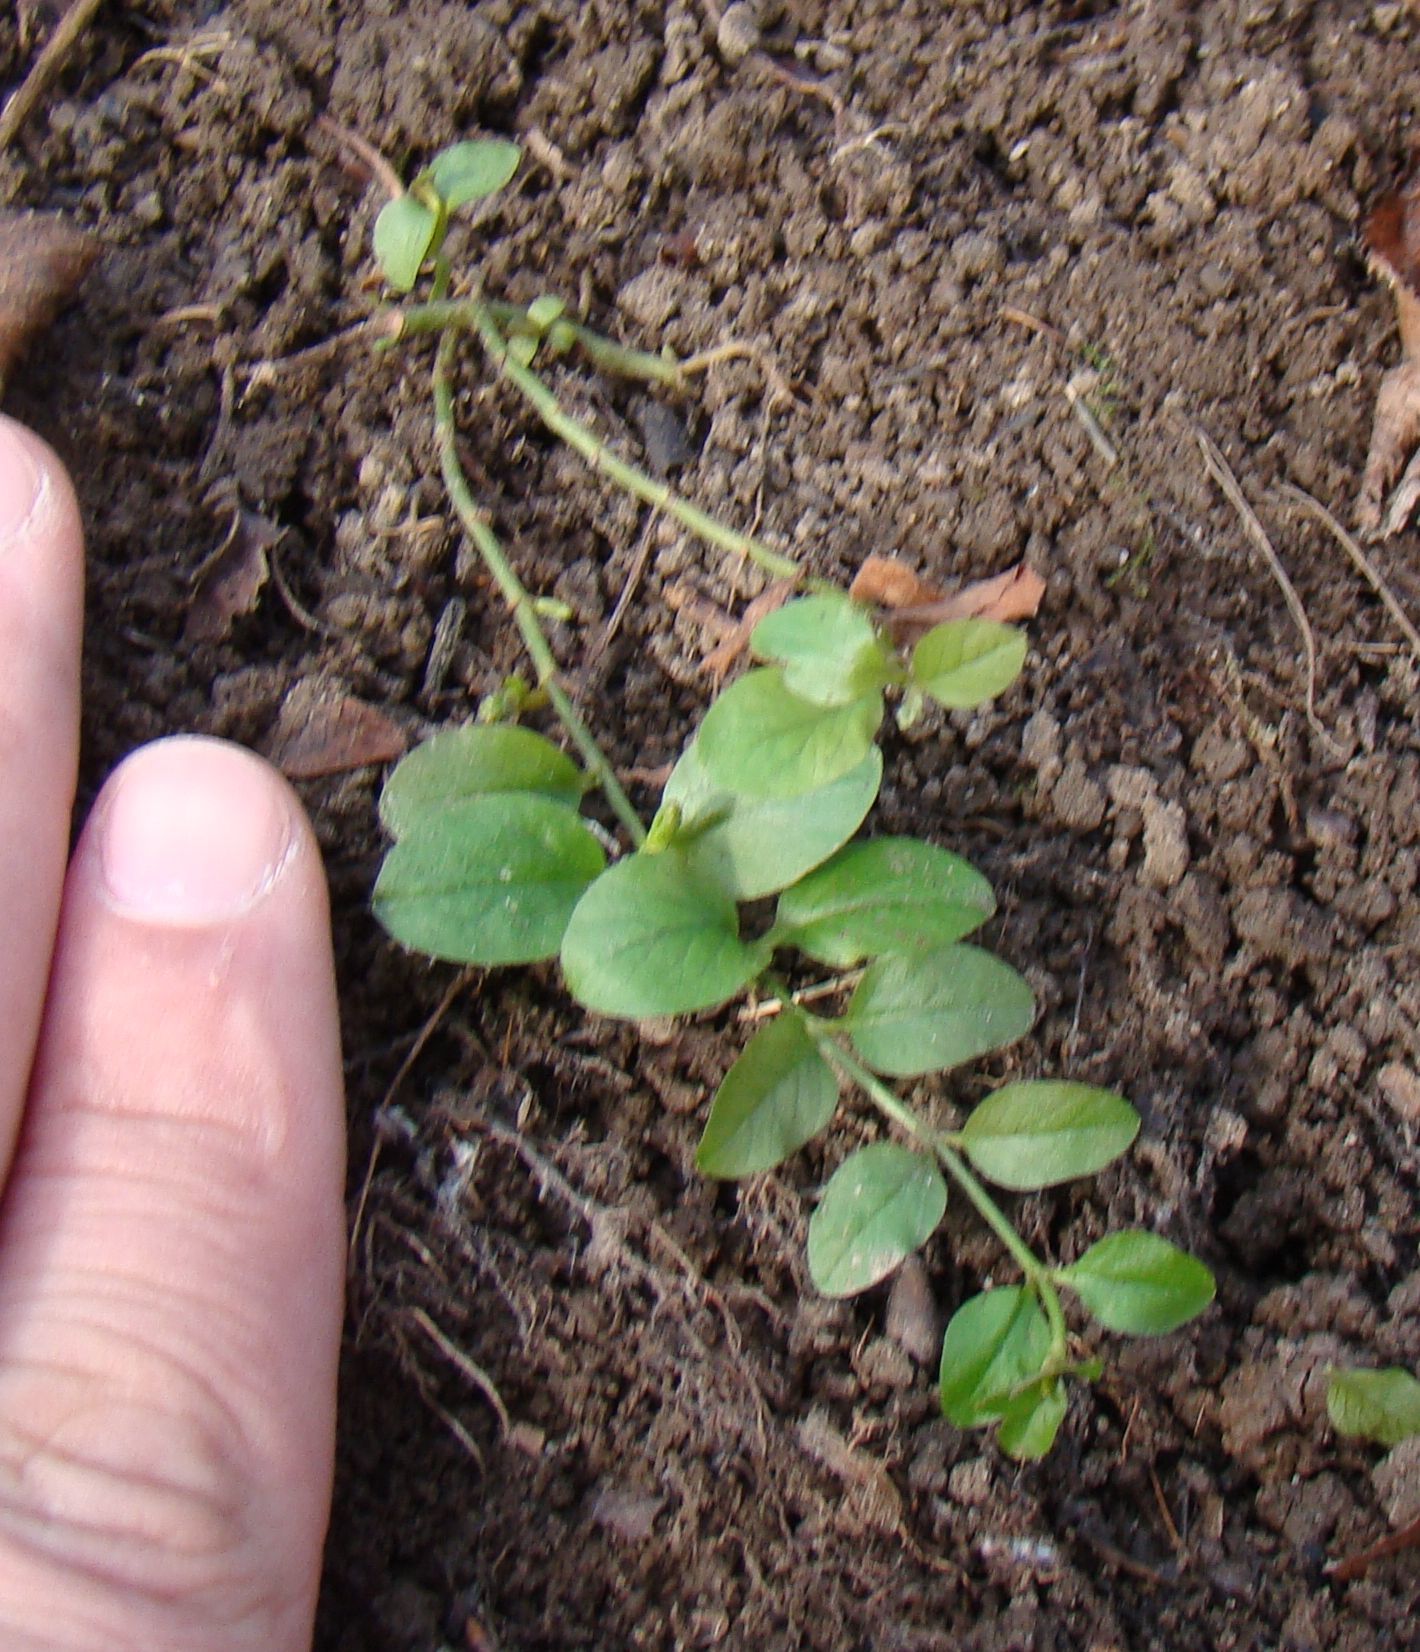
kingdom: Plantae
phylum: Tracheophyta
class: Magnoliopsida
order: Ericales
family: Primulaceae
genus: Lysimachia
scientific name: Lysimachia nummularia
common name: Moneywort
